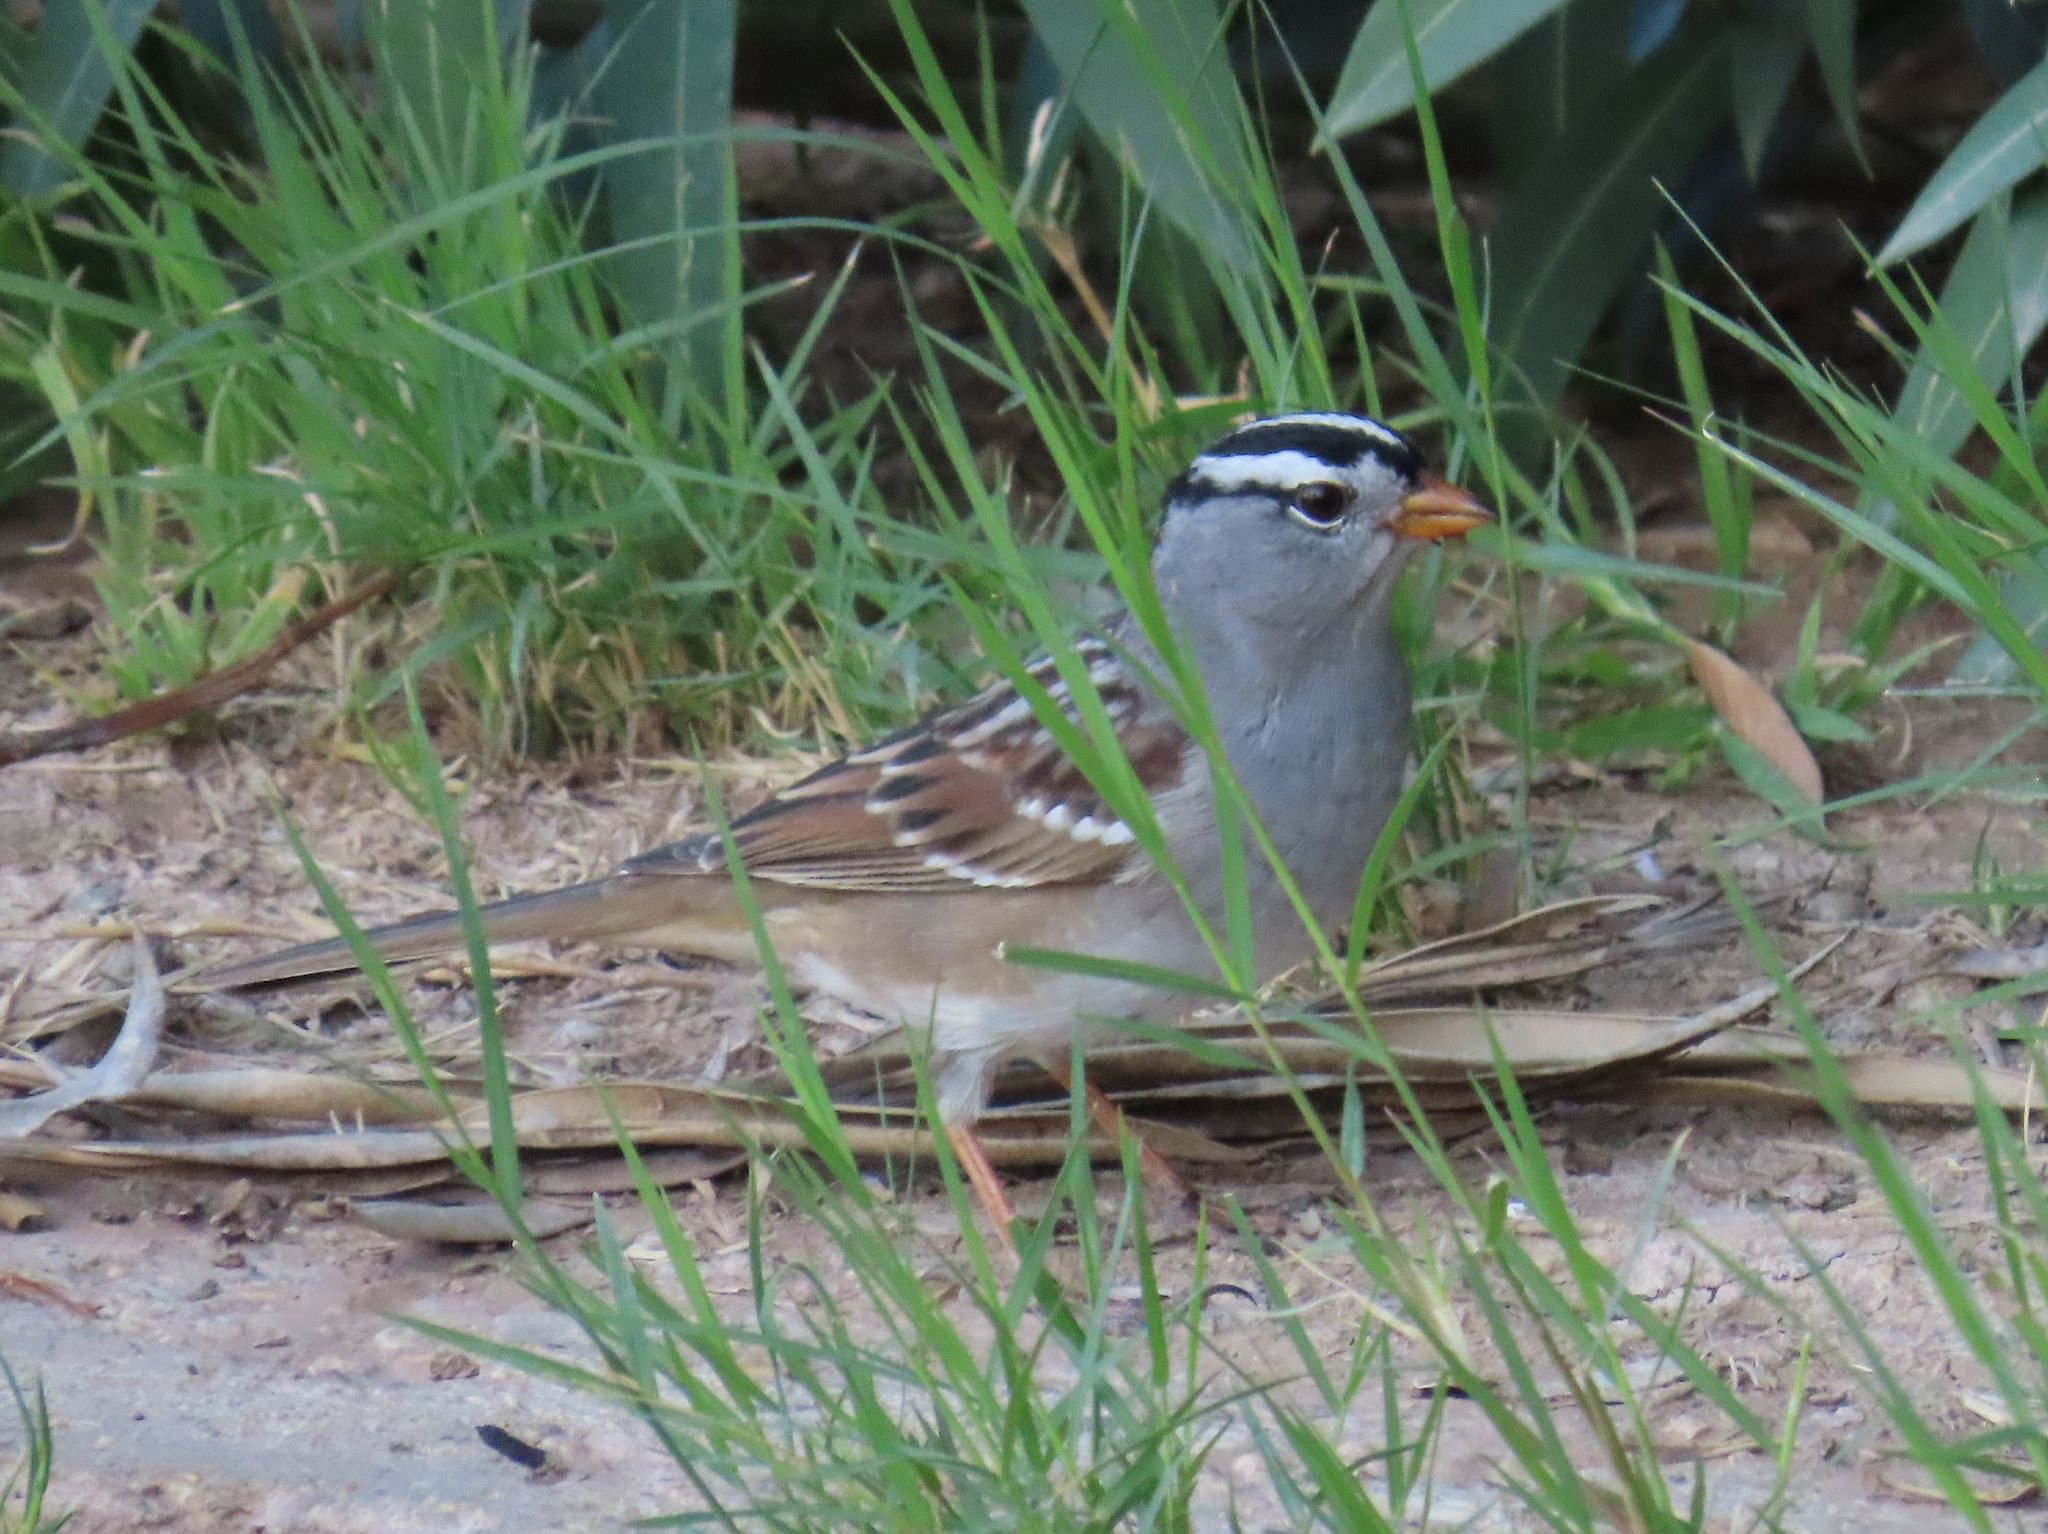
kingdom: Animalia
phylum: Chordata
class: Aves
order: Passeriformes
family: Passerellidae
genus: Zonotrichia
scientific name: Zonotrichia leucophrys
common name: White-crowned sparrow
